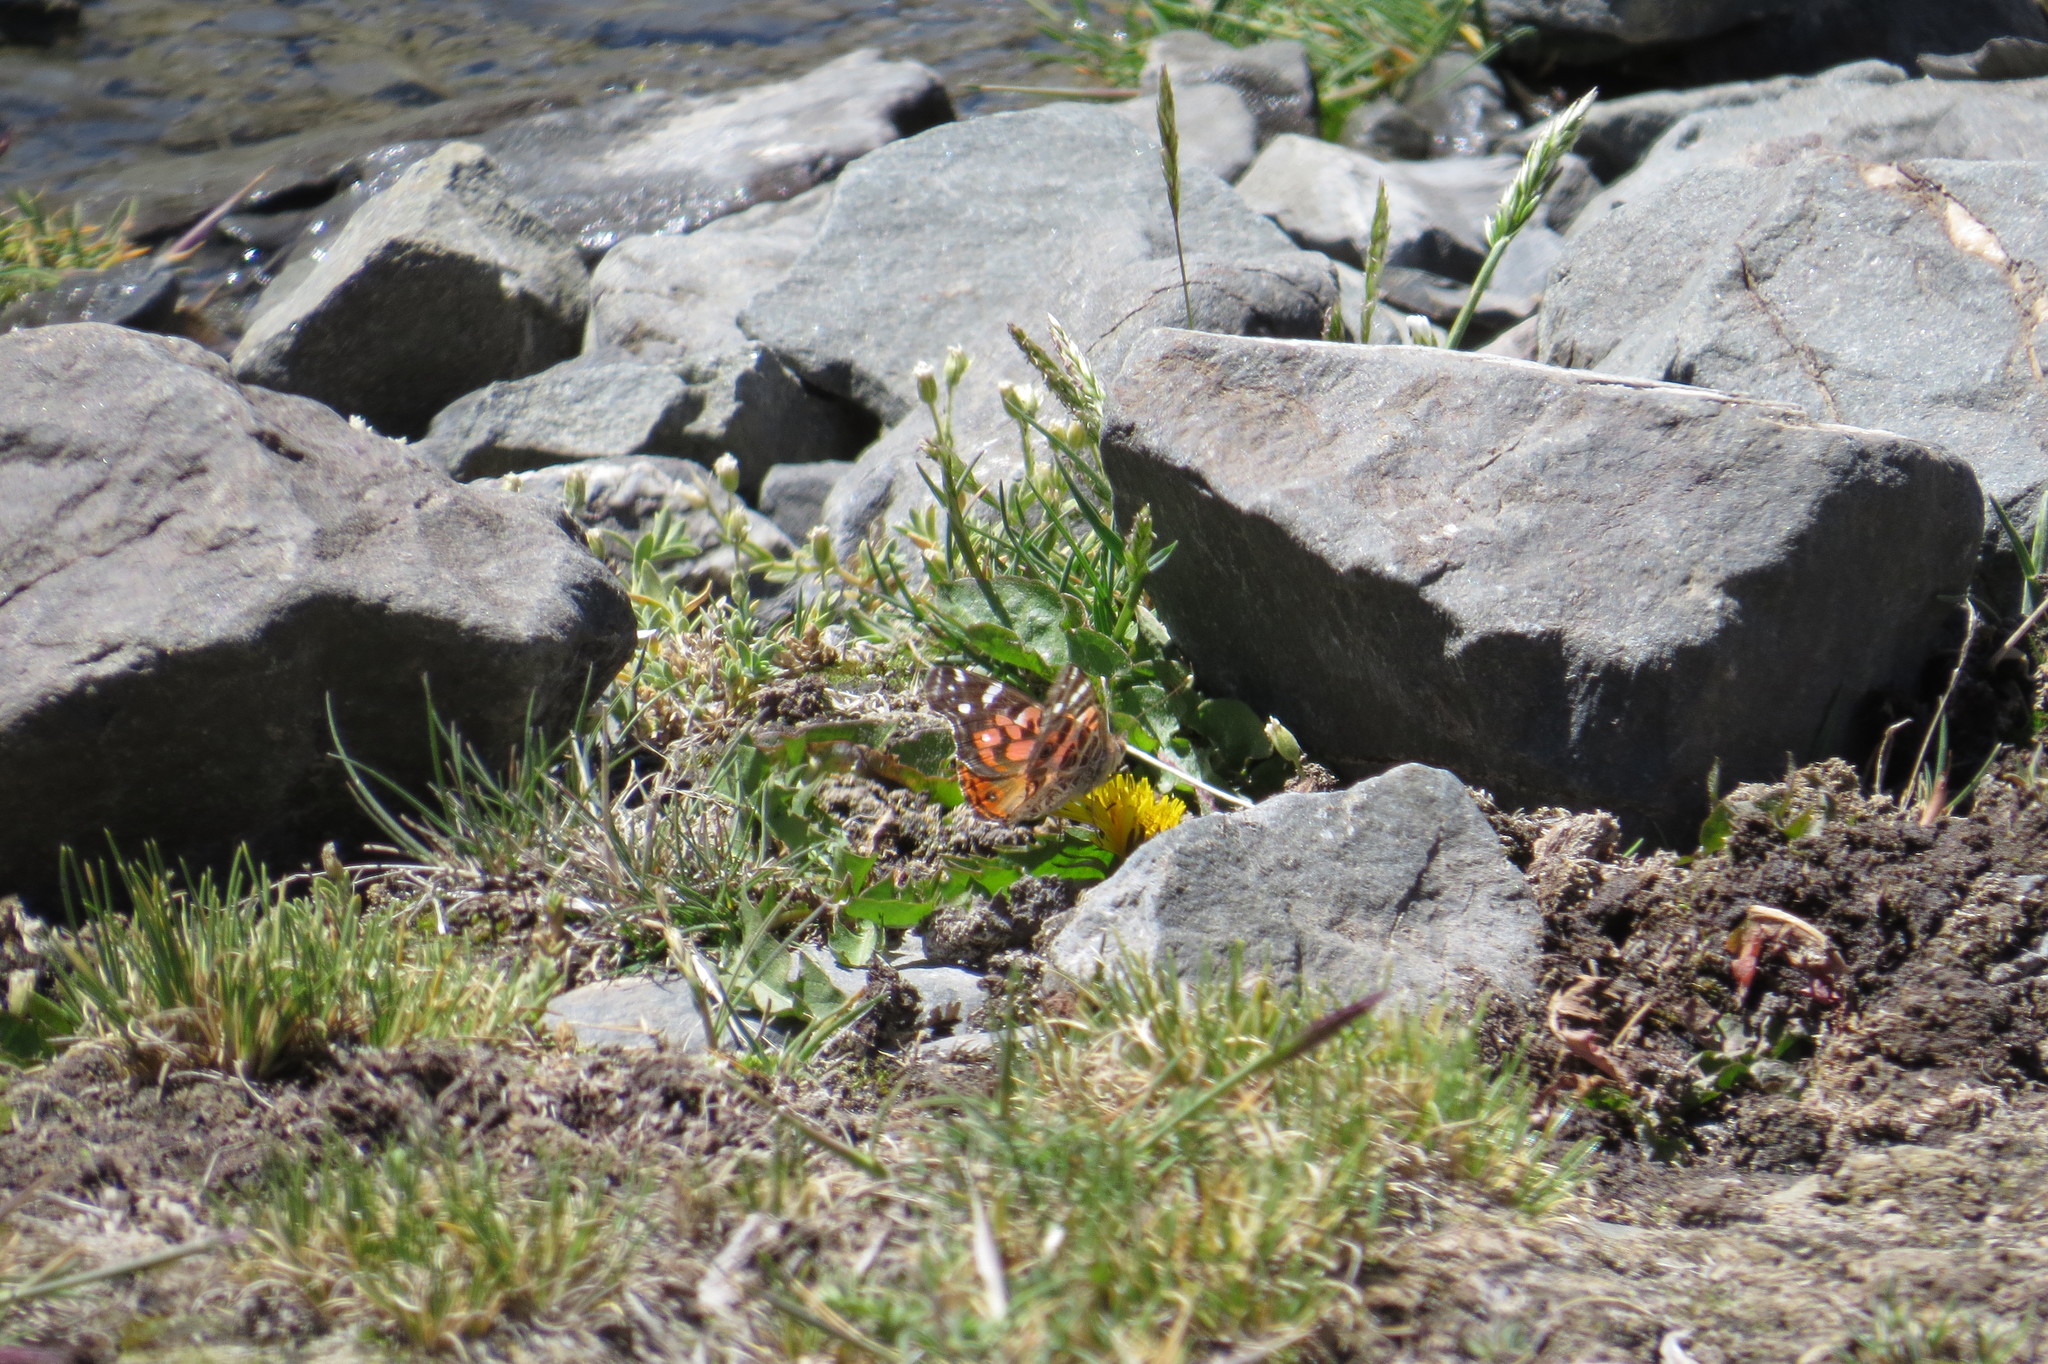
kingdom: Animalia
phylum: Arthropoda
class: Insecta
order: Lepidoptera
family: Nymphalidae
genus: Vanessa
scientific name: Vanessa braziliensis
